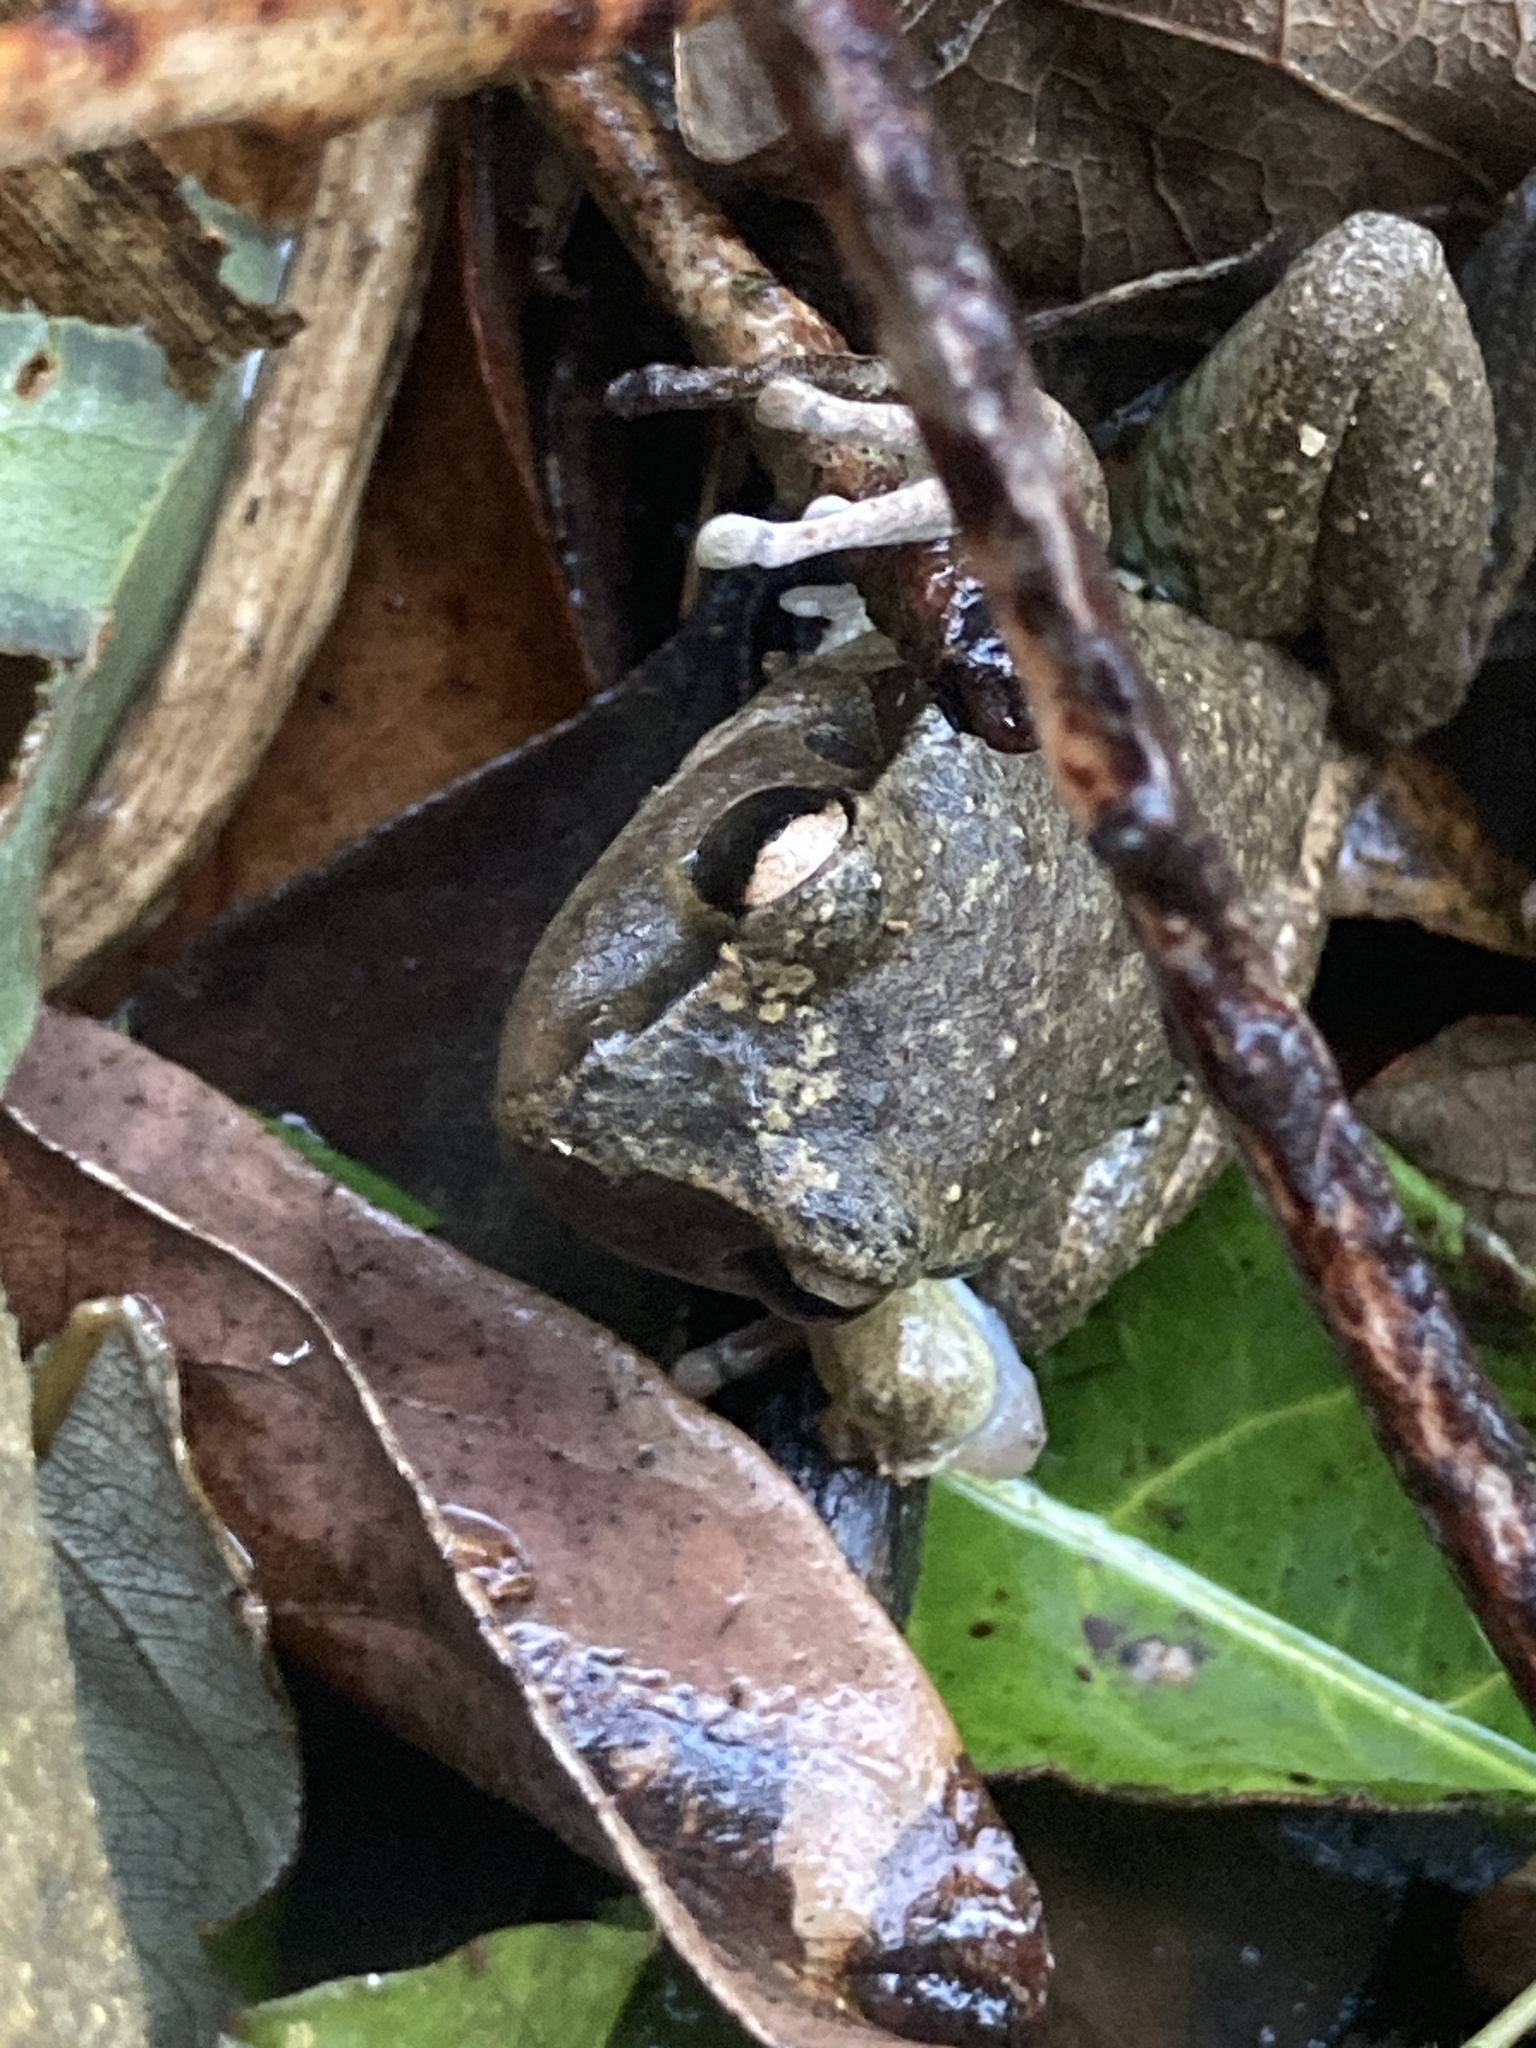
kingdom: Animalia
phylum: Chordata
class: Amphibia
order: Anura
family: Pelodryadidae
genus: Ranoidea
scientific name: Ranoidea lesueurii
